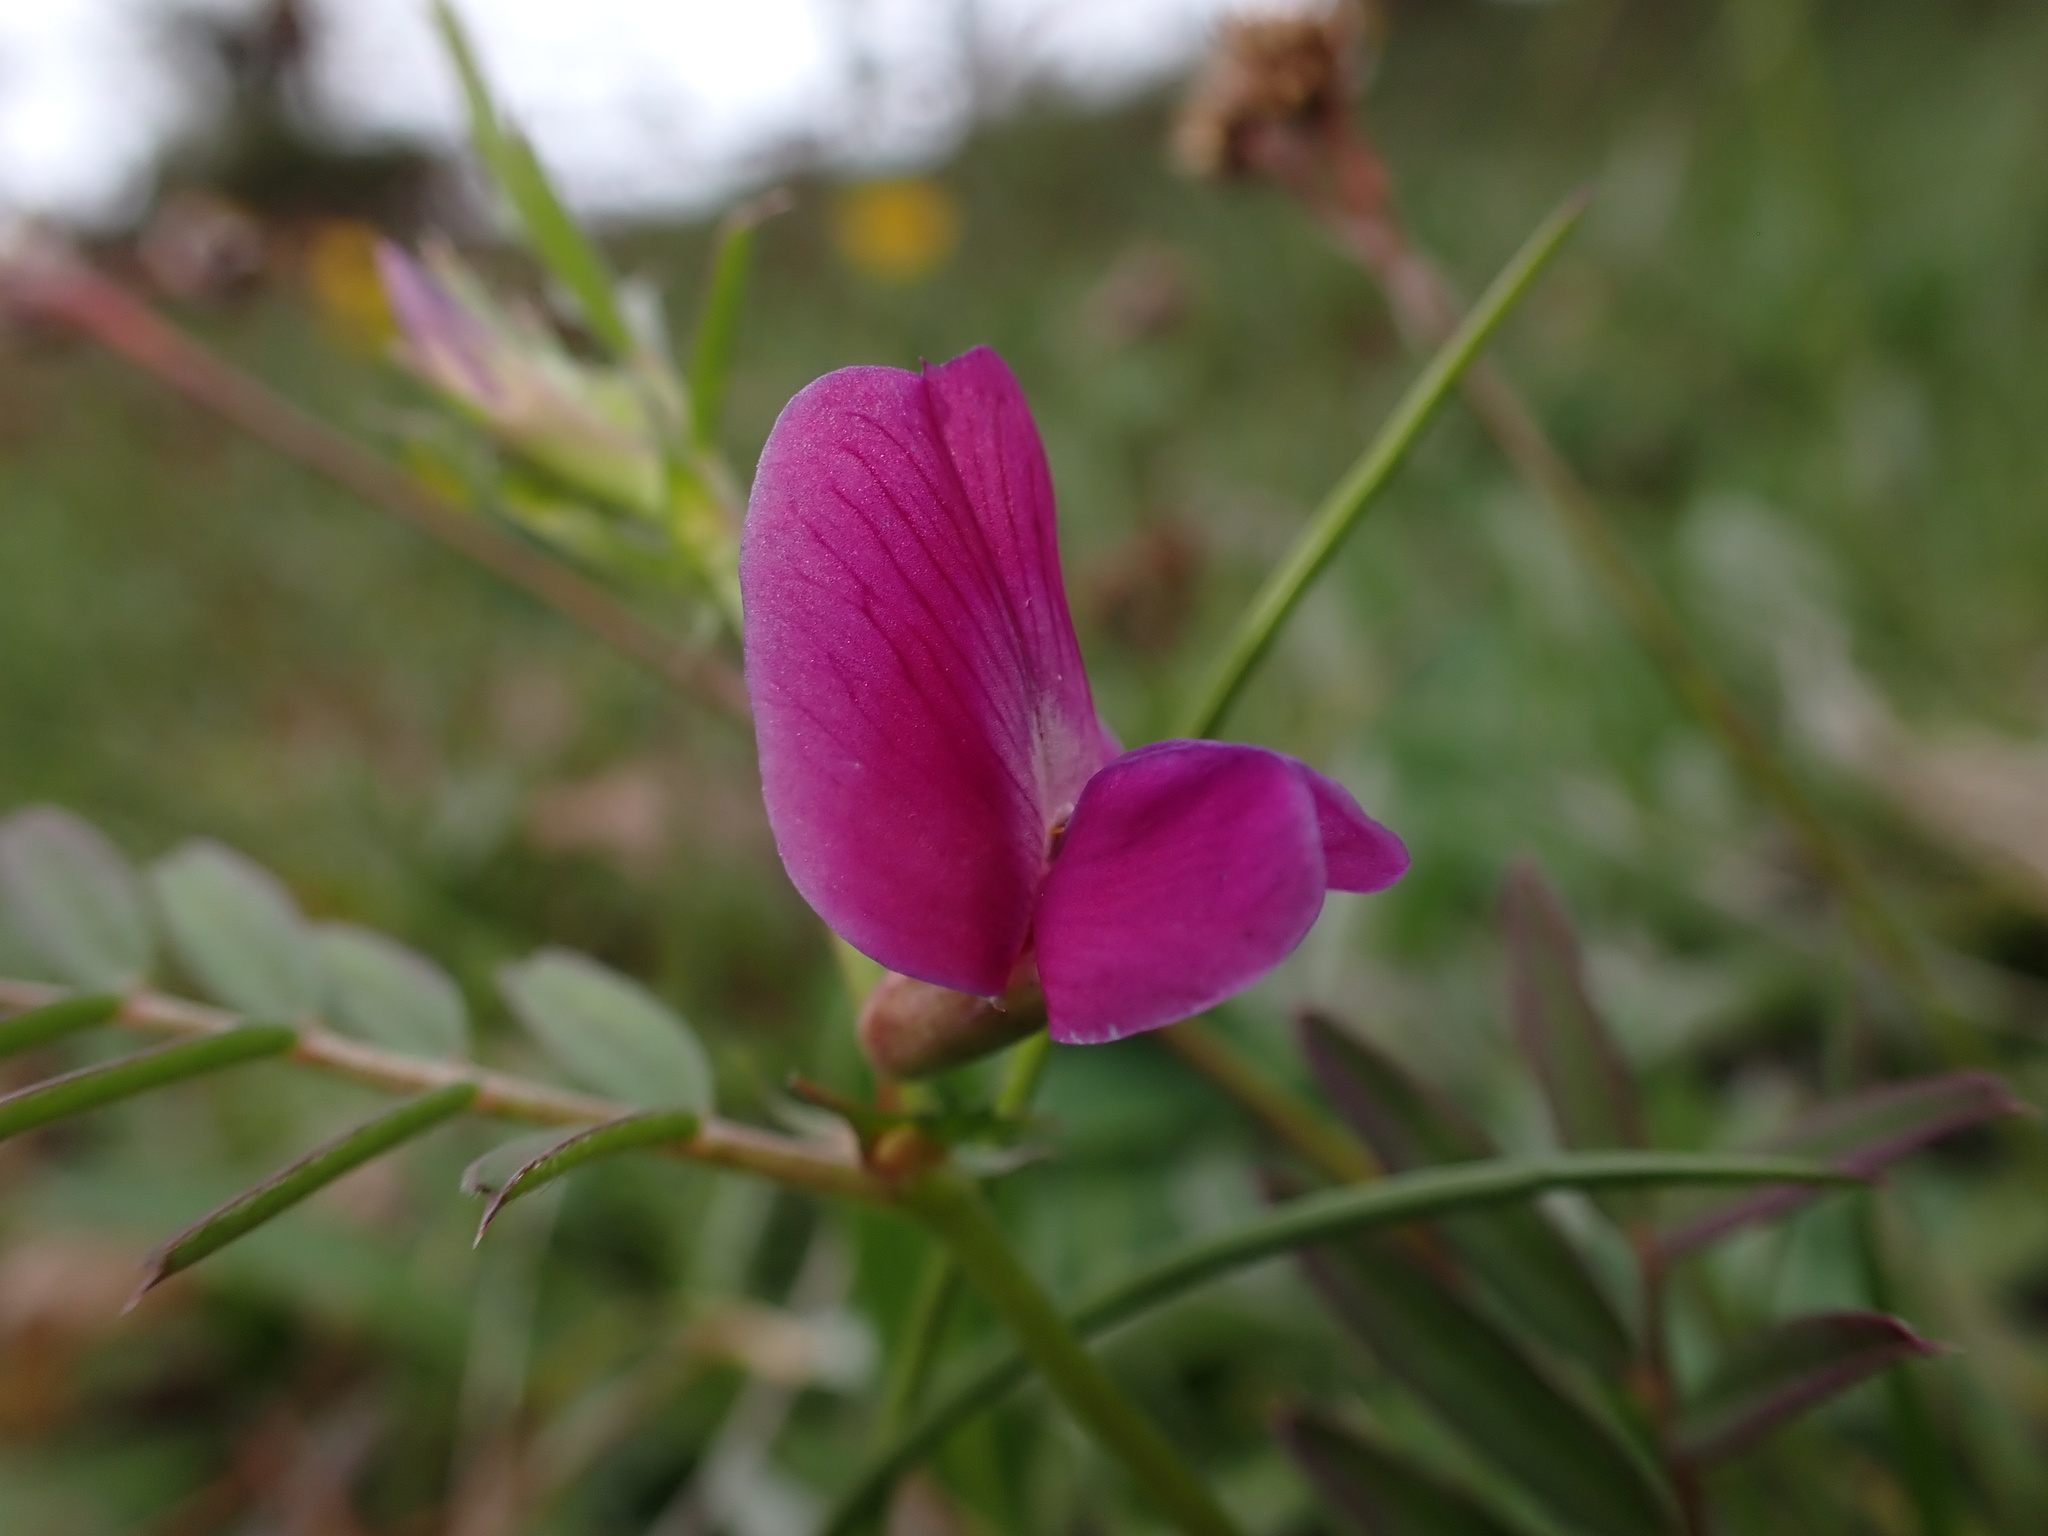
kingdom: Plantae
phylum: Tracheophyta
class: Magnoliopsida
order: Fabales
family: Fabaceae
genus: Vicia
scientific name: Vicia sativa
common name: Garden vetch
